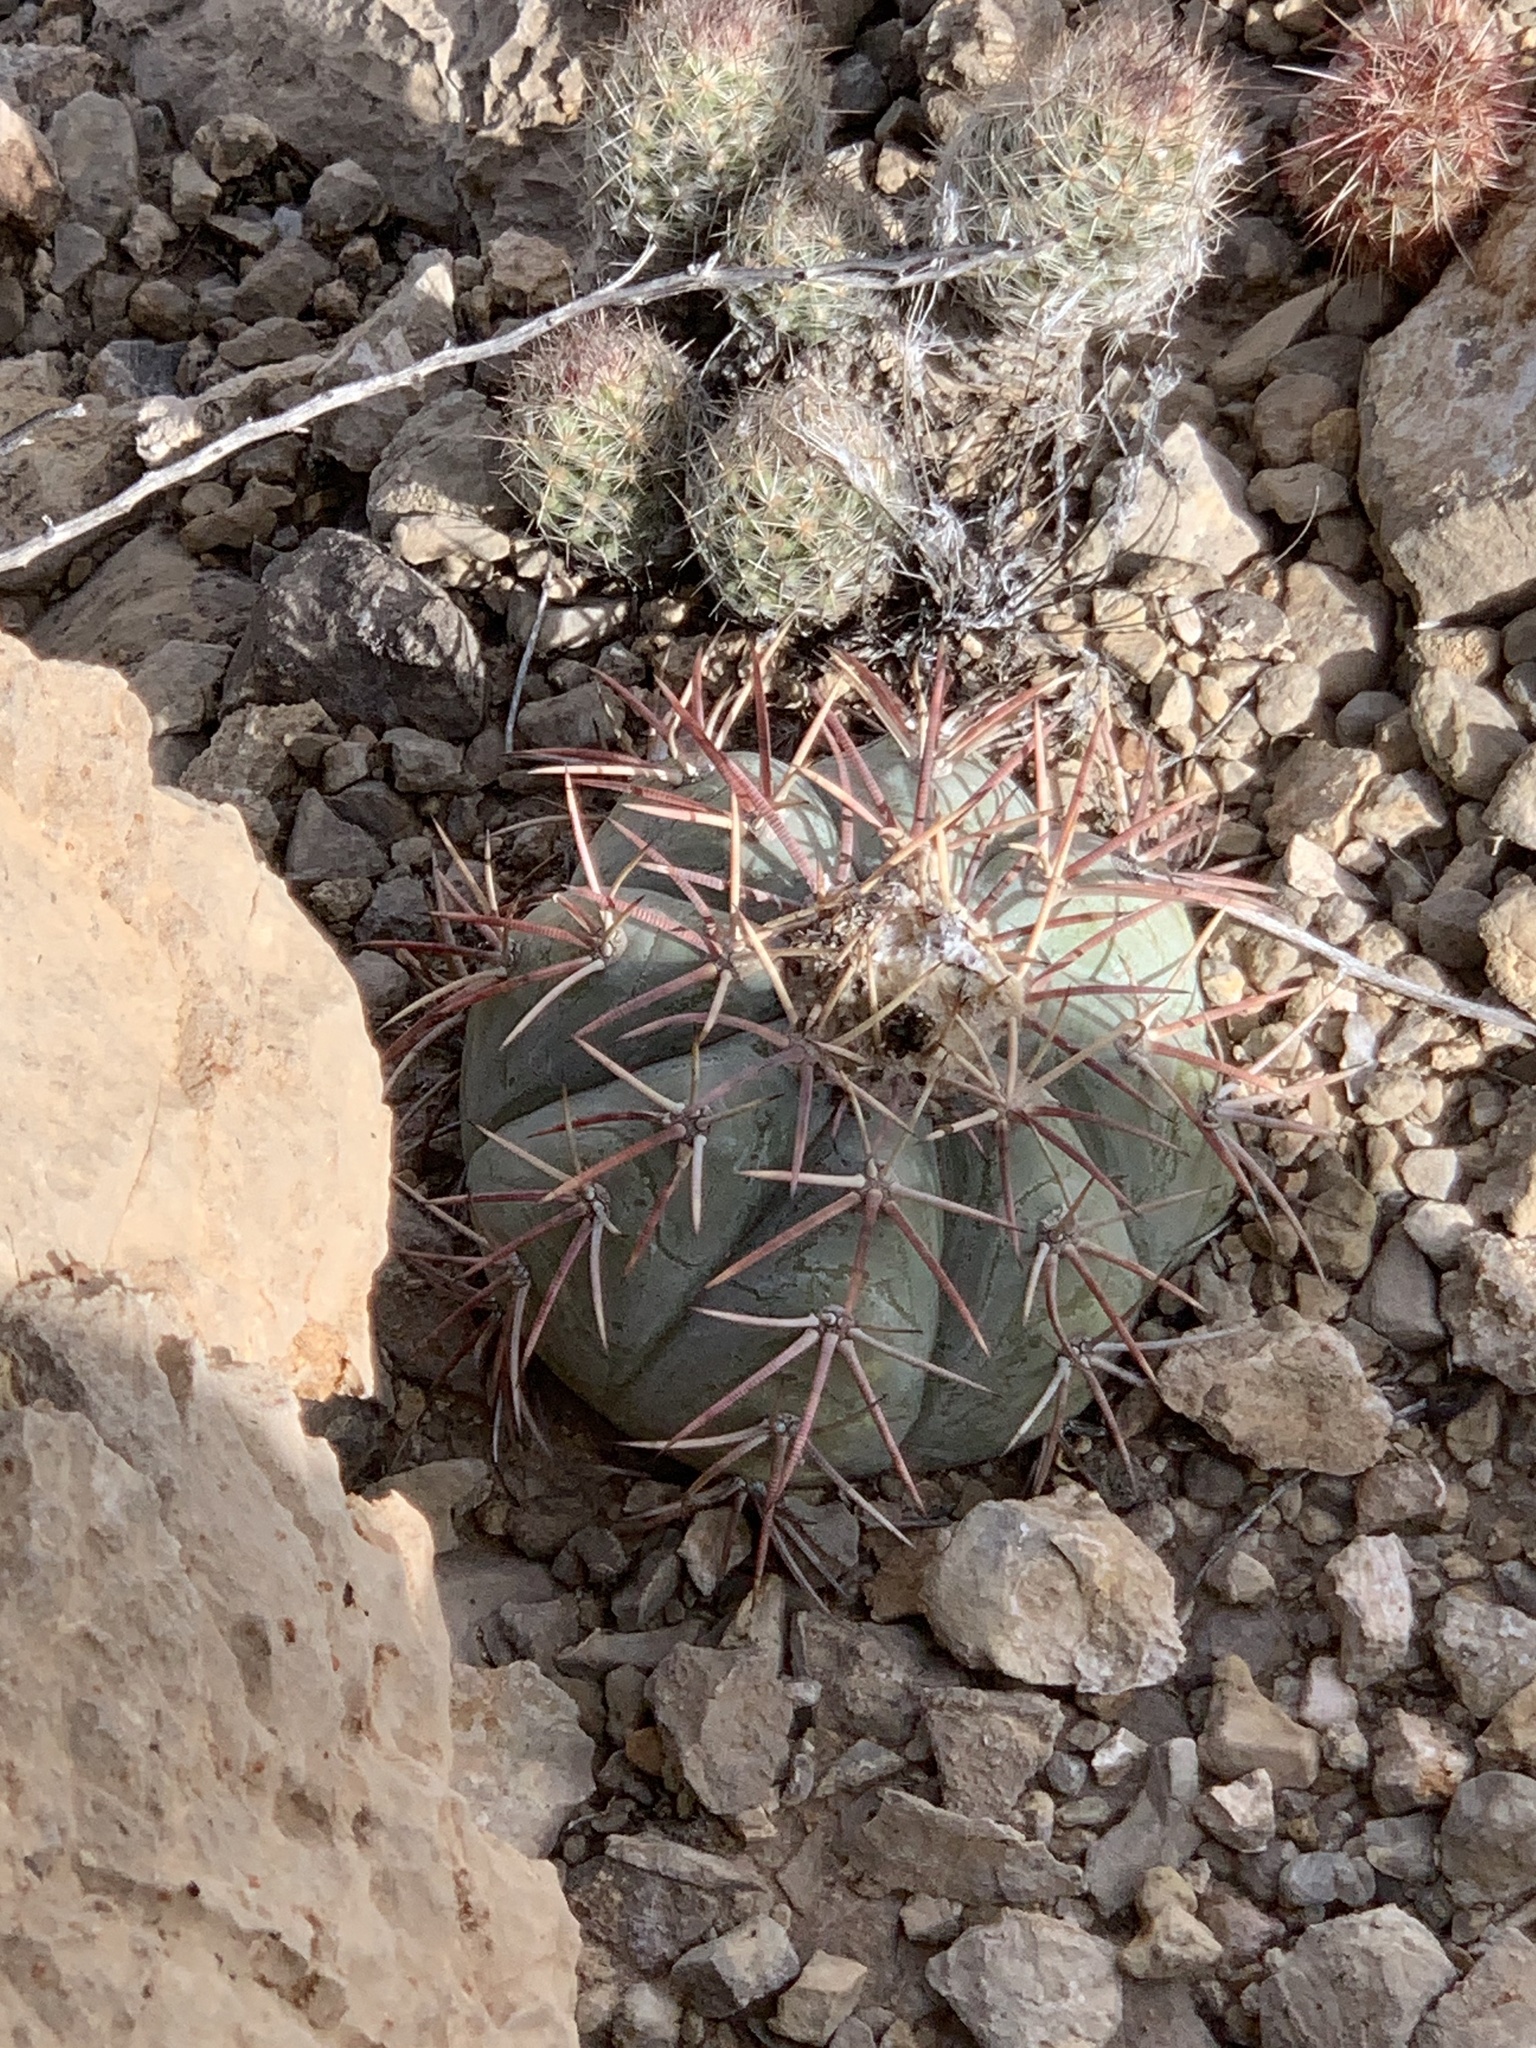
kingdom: Plantae
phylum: Tracheophyta
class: Magnoliopsida
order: Caryophyllales
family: Cactaceae
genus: Echinocactus
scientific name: Echinocactus horizonthalonius
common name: Devilshead
